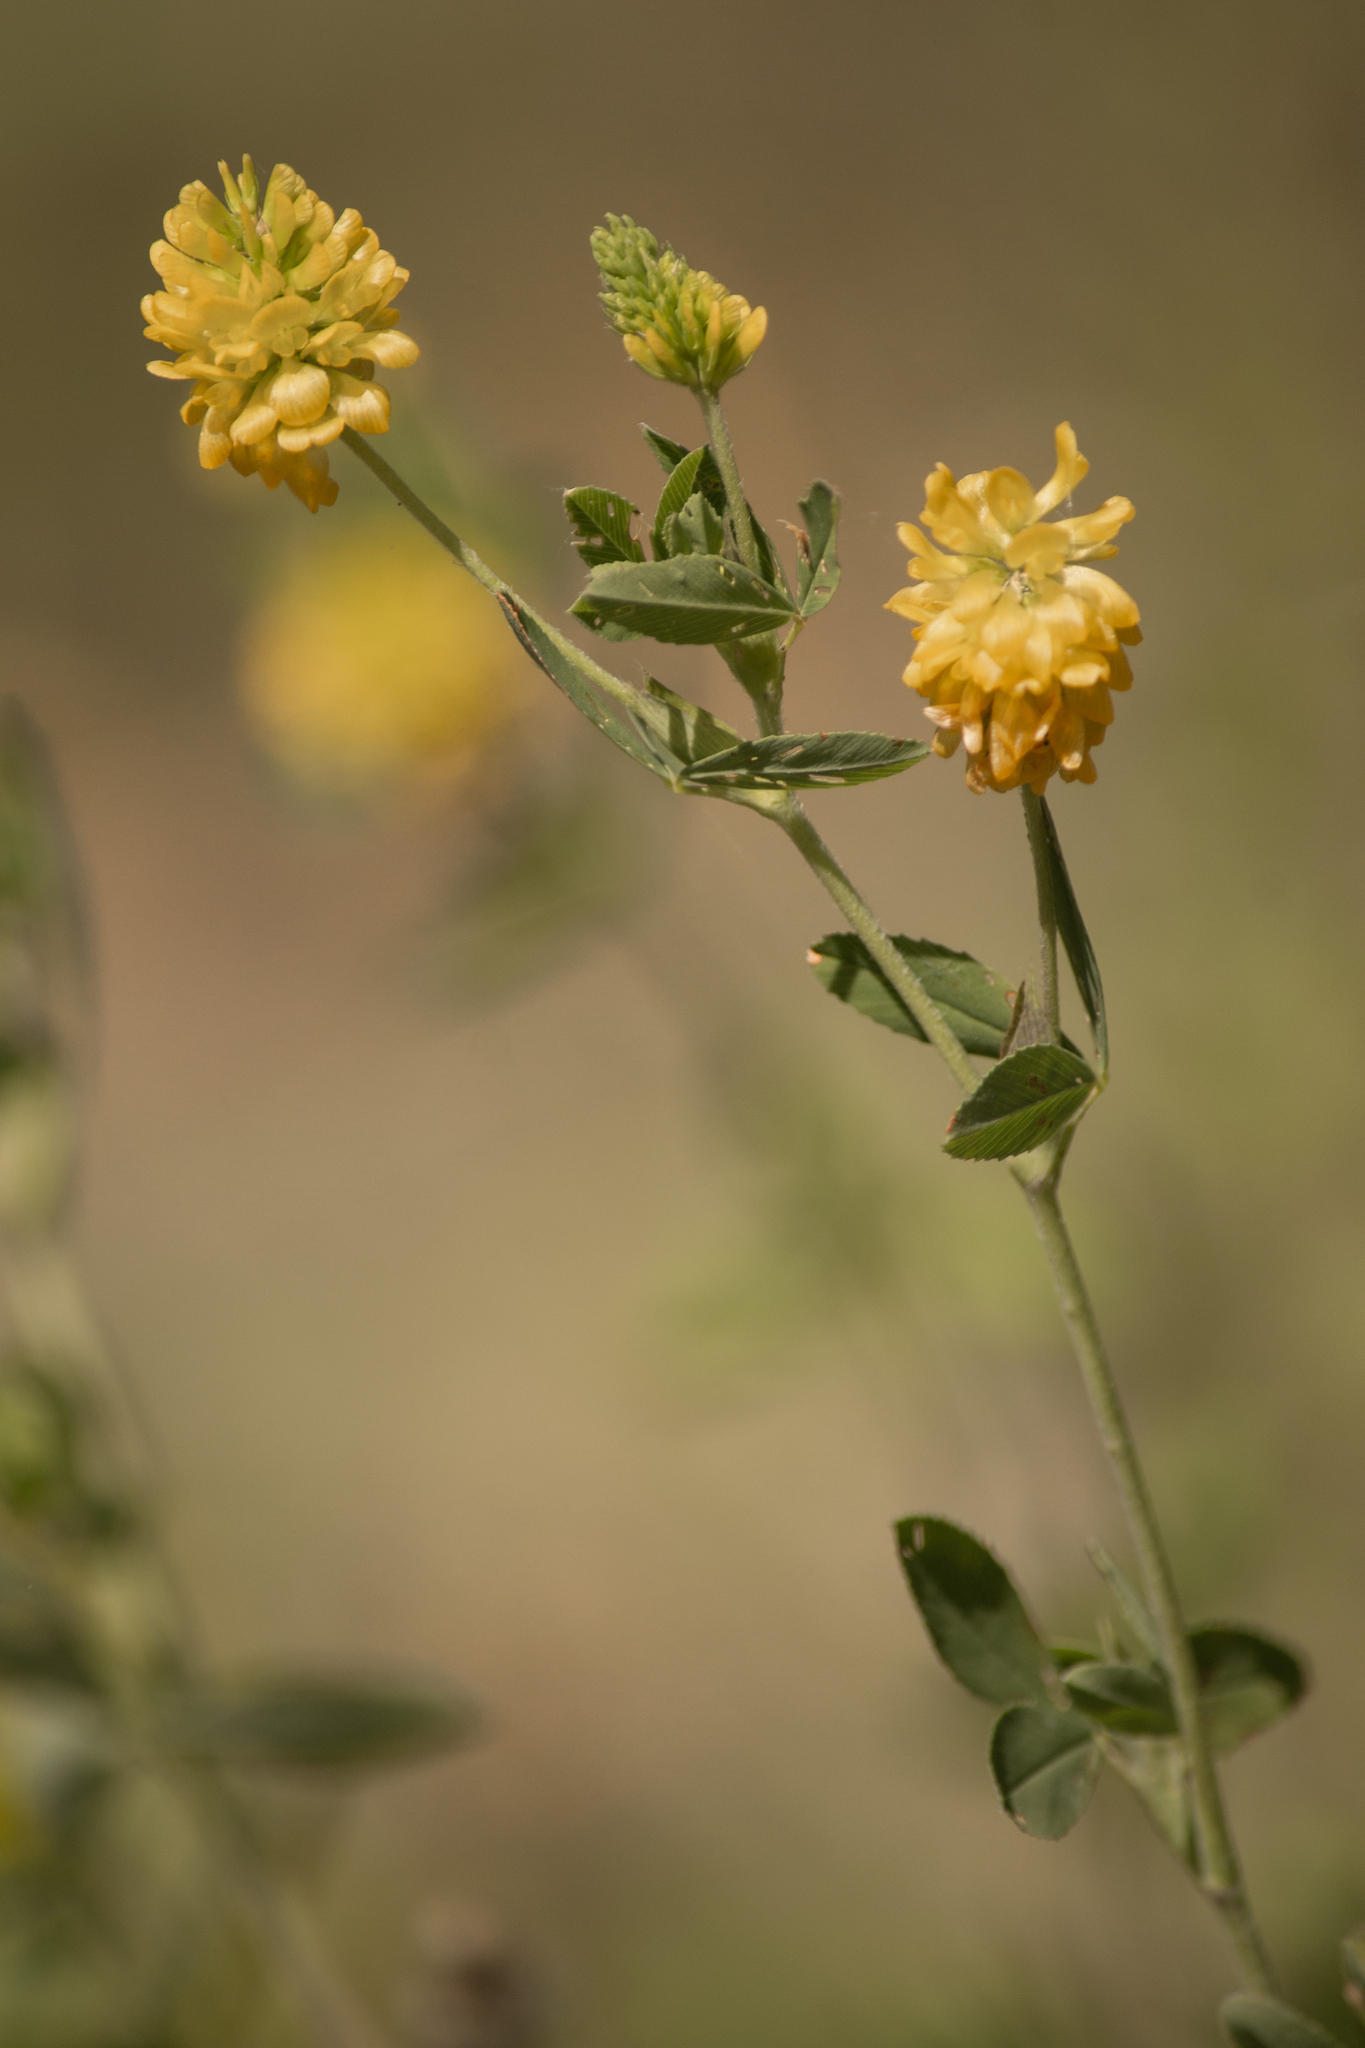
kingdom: Plantae
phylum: Tracheophyta
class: Magnoliopsida
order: Fabales
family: Fabaceae
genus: Trifolium
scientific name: Trifolium aureum
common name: Golden clover
